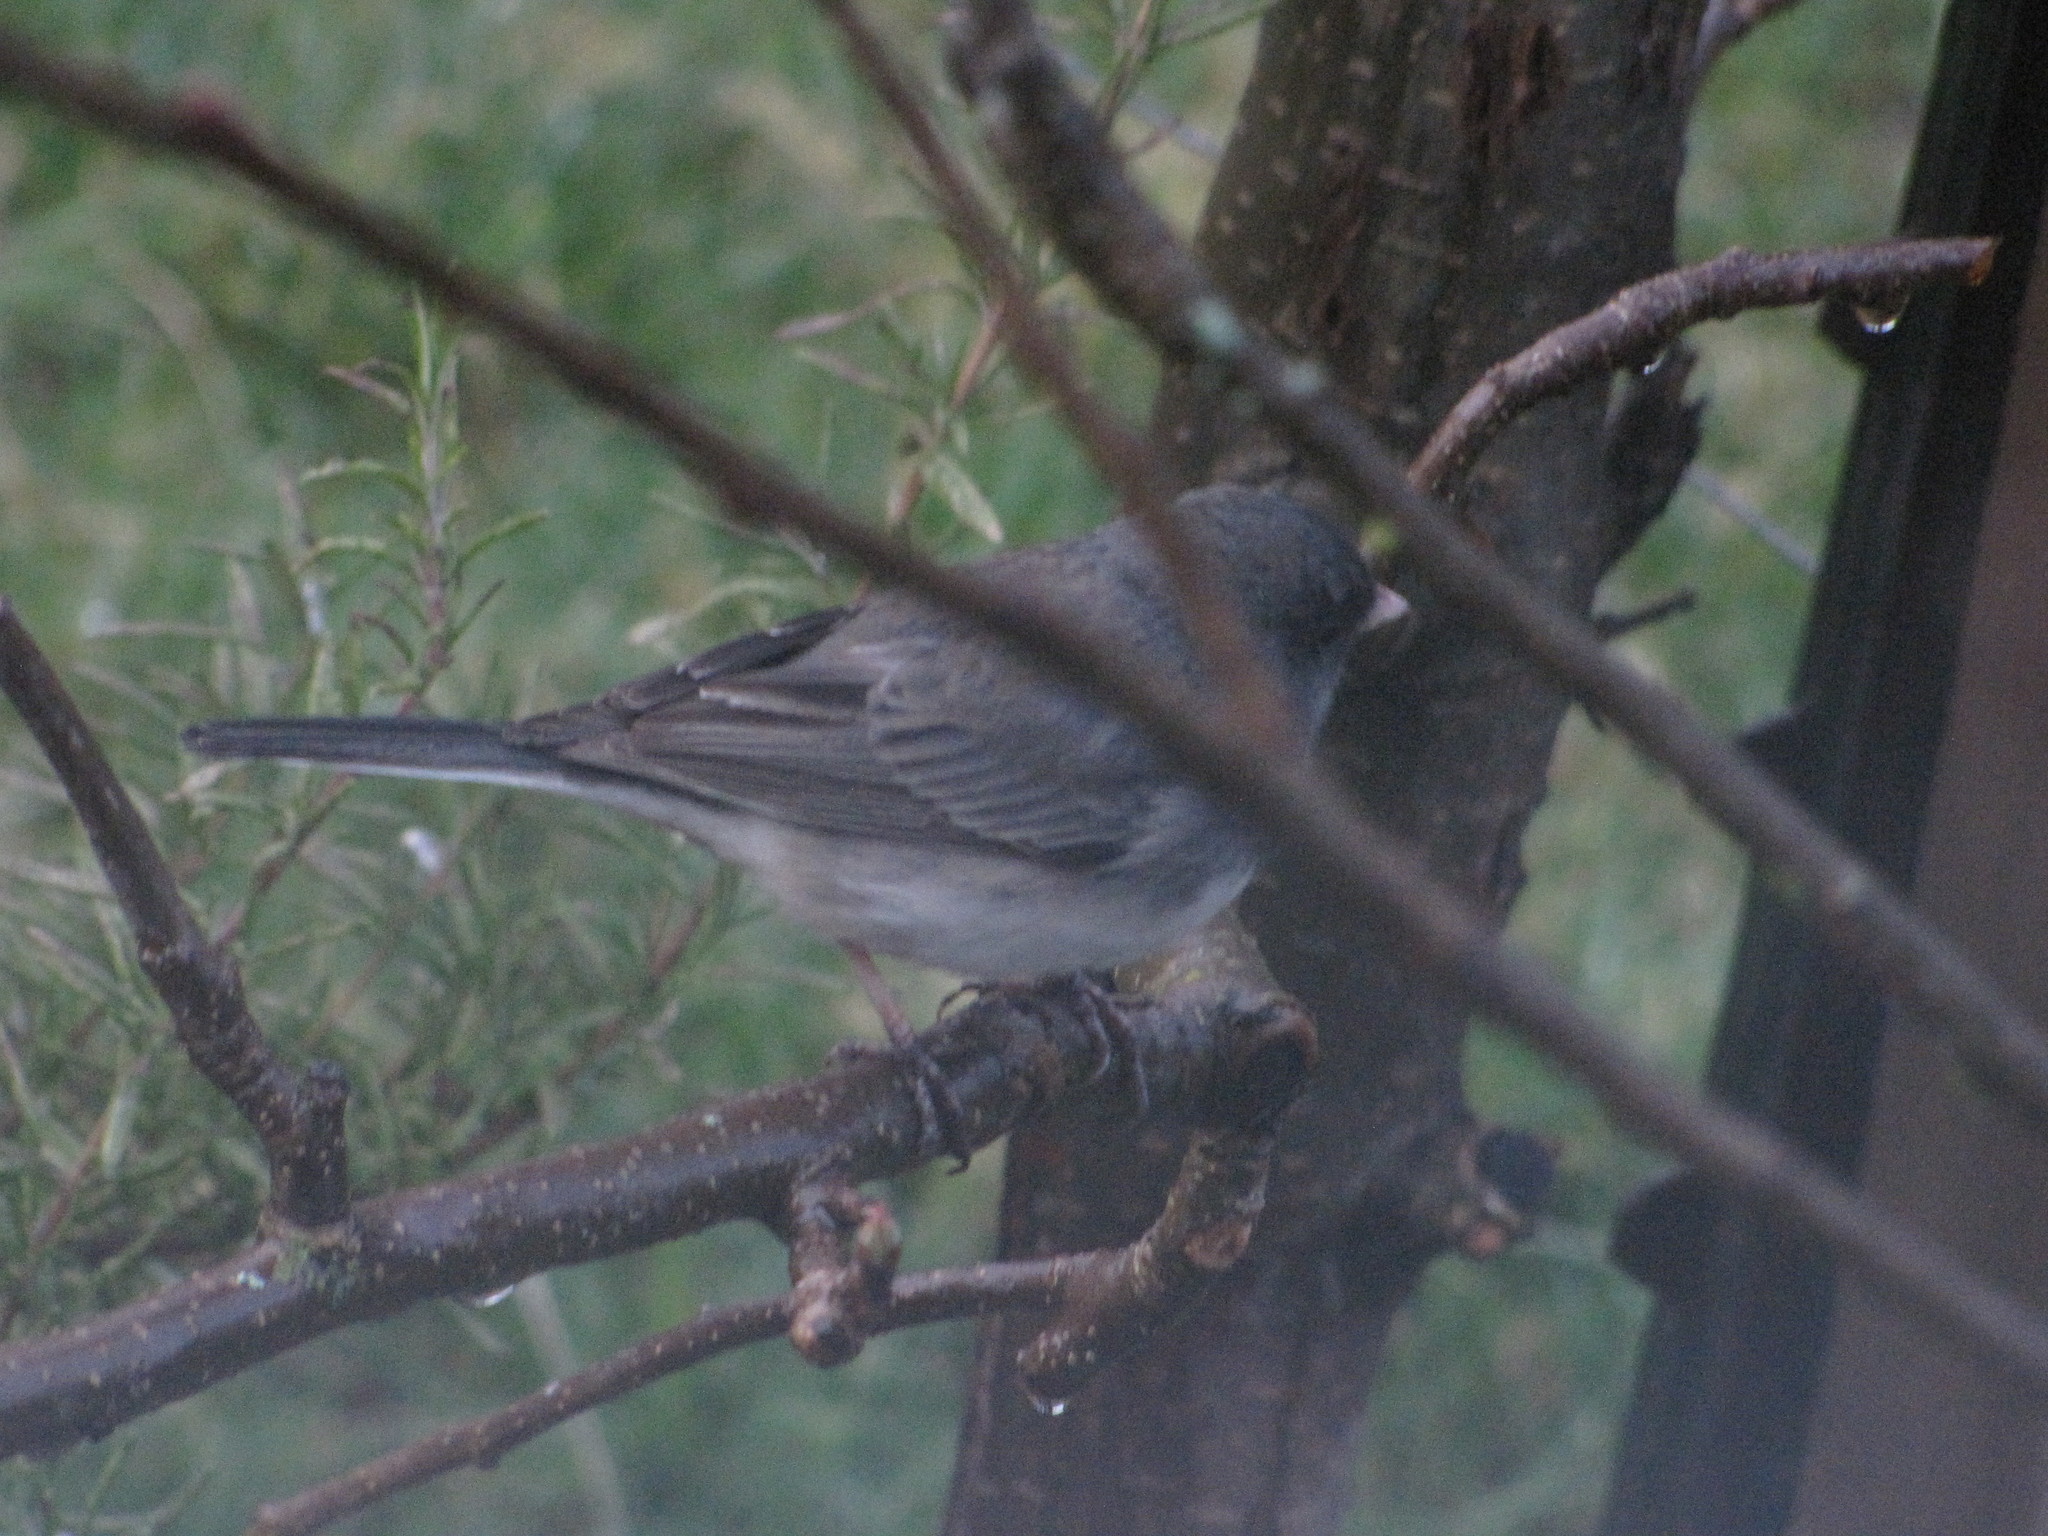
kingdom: Animalia
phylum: Chordata
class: Aves
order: Passeriformes
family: Passerellidae
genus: Junco
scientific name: Junco hyemalis
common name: Dark-eyed junco
